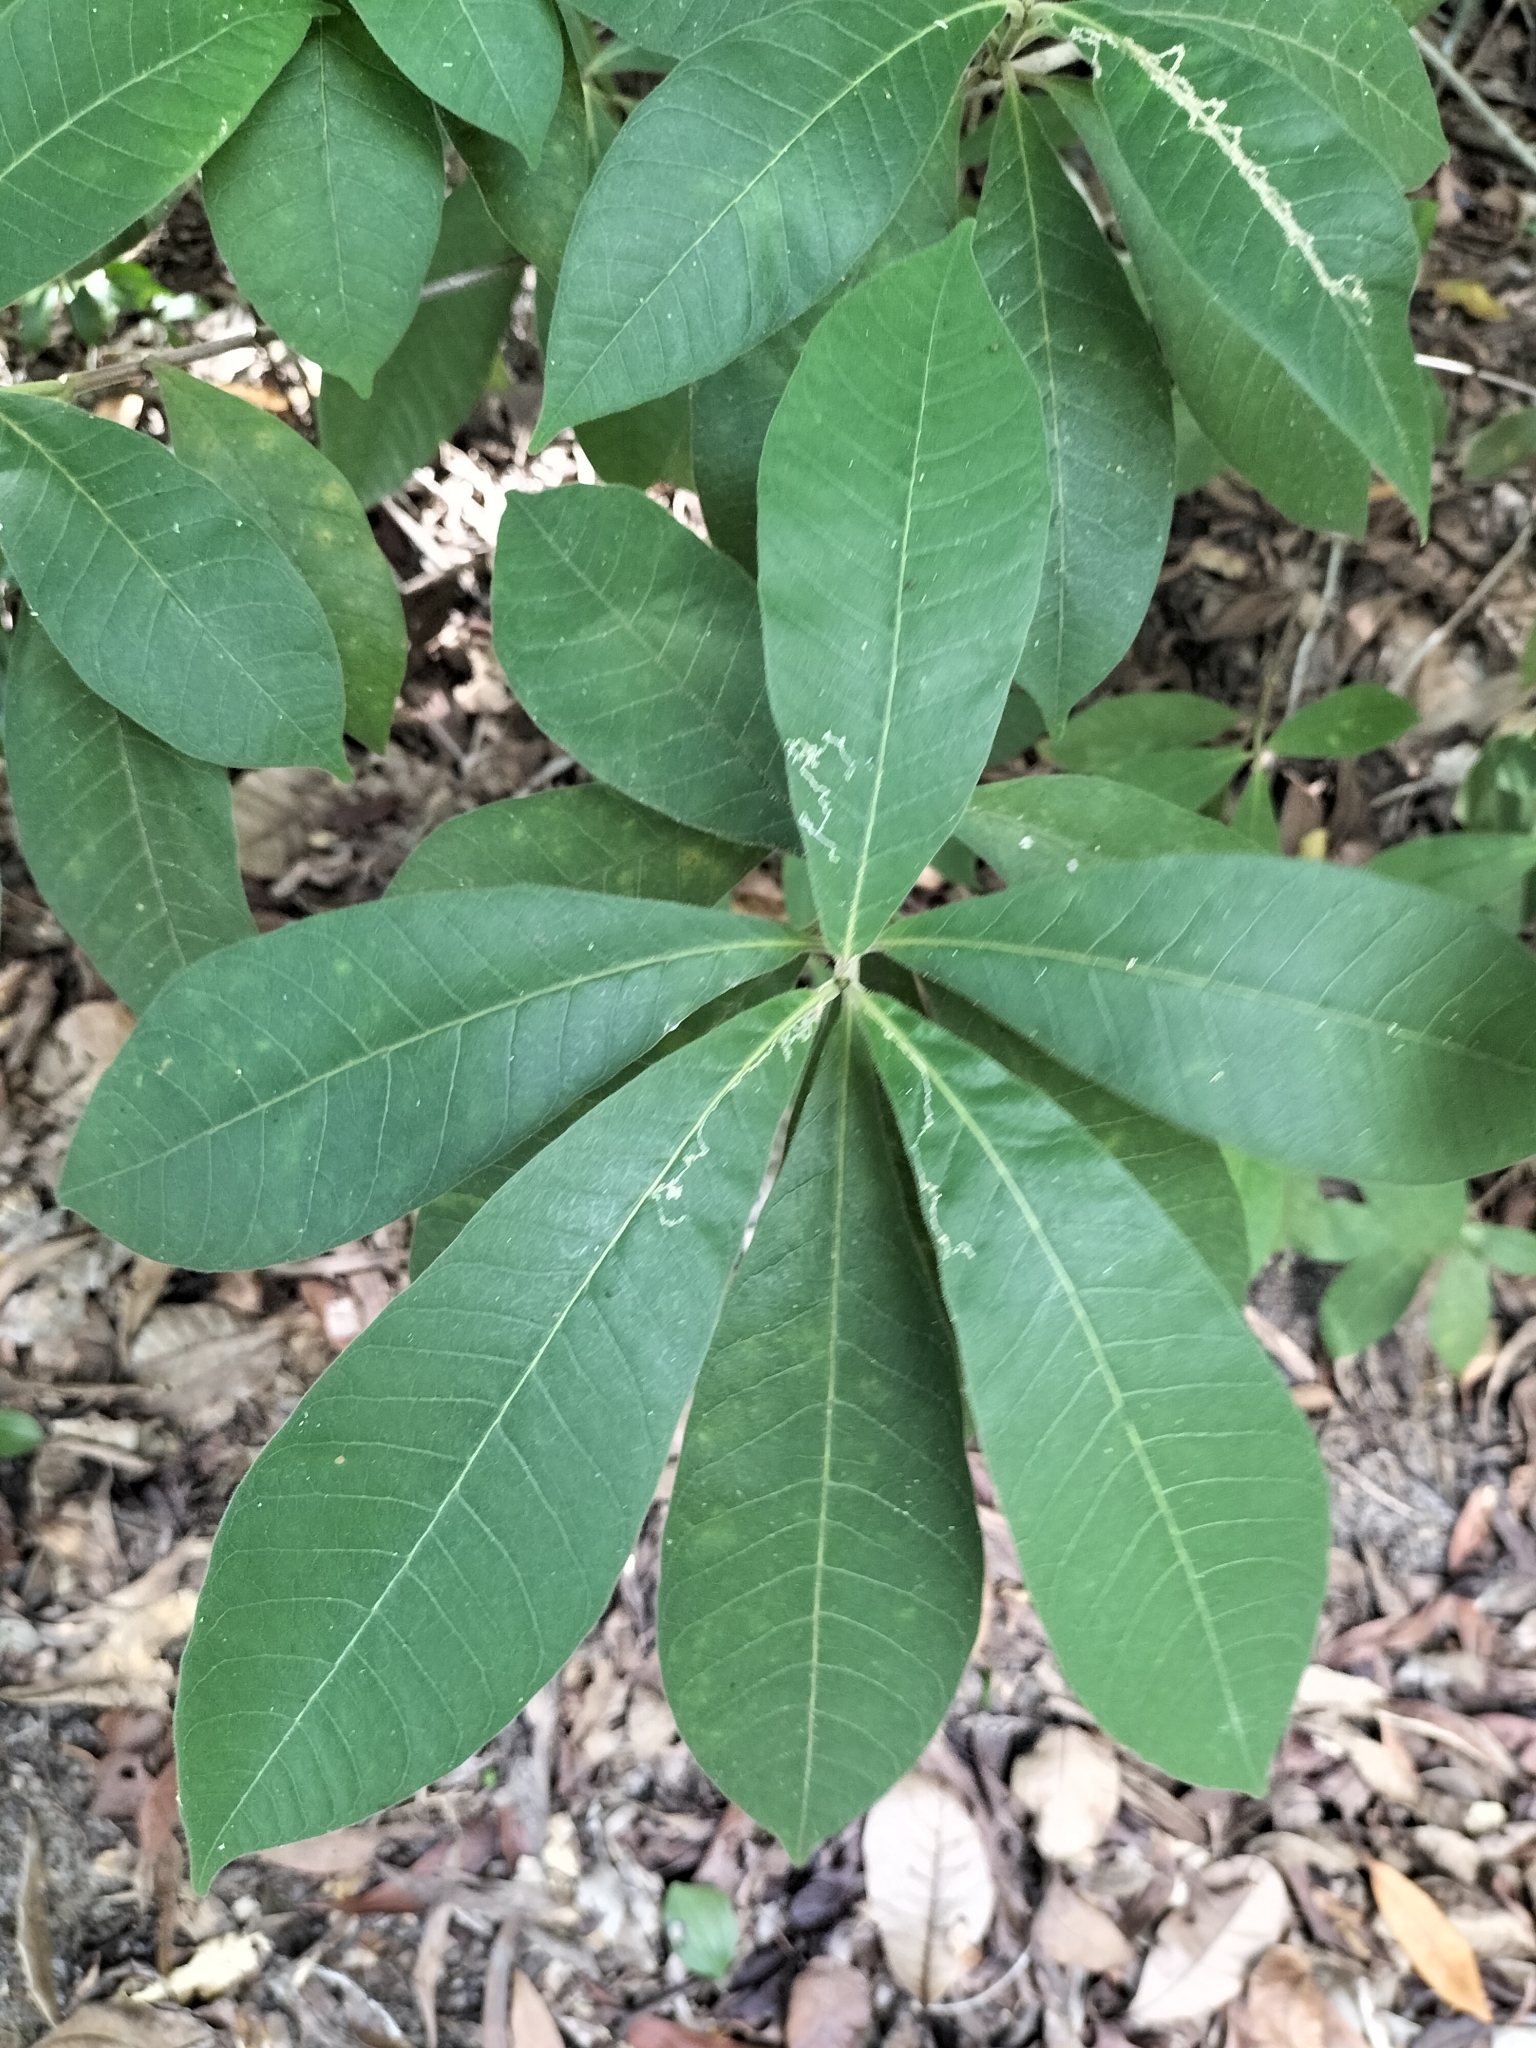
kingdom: Plantae
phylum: Tracheophyta
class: Magnoliopsida
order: Gentianales
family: Apocynaceae
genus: Alstonia
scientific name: Alstonia muelleriana
